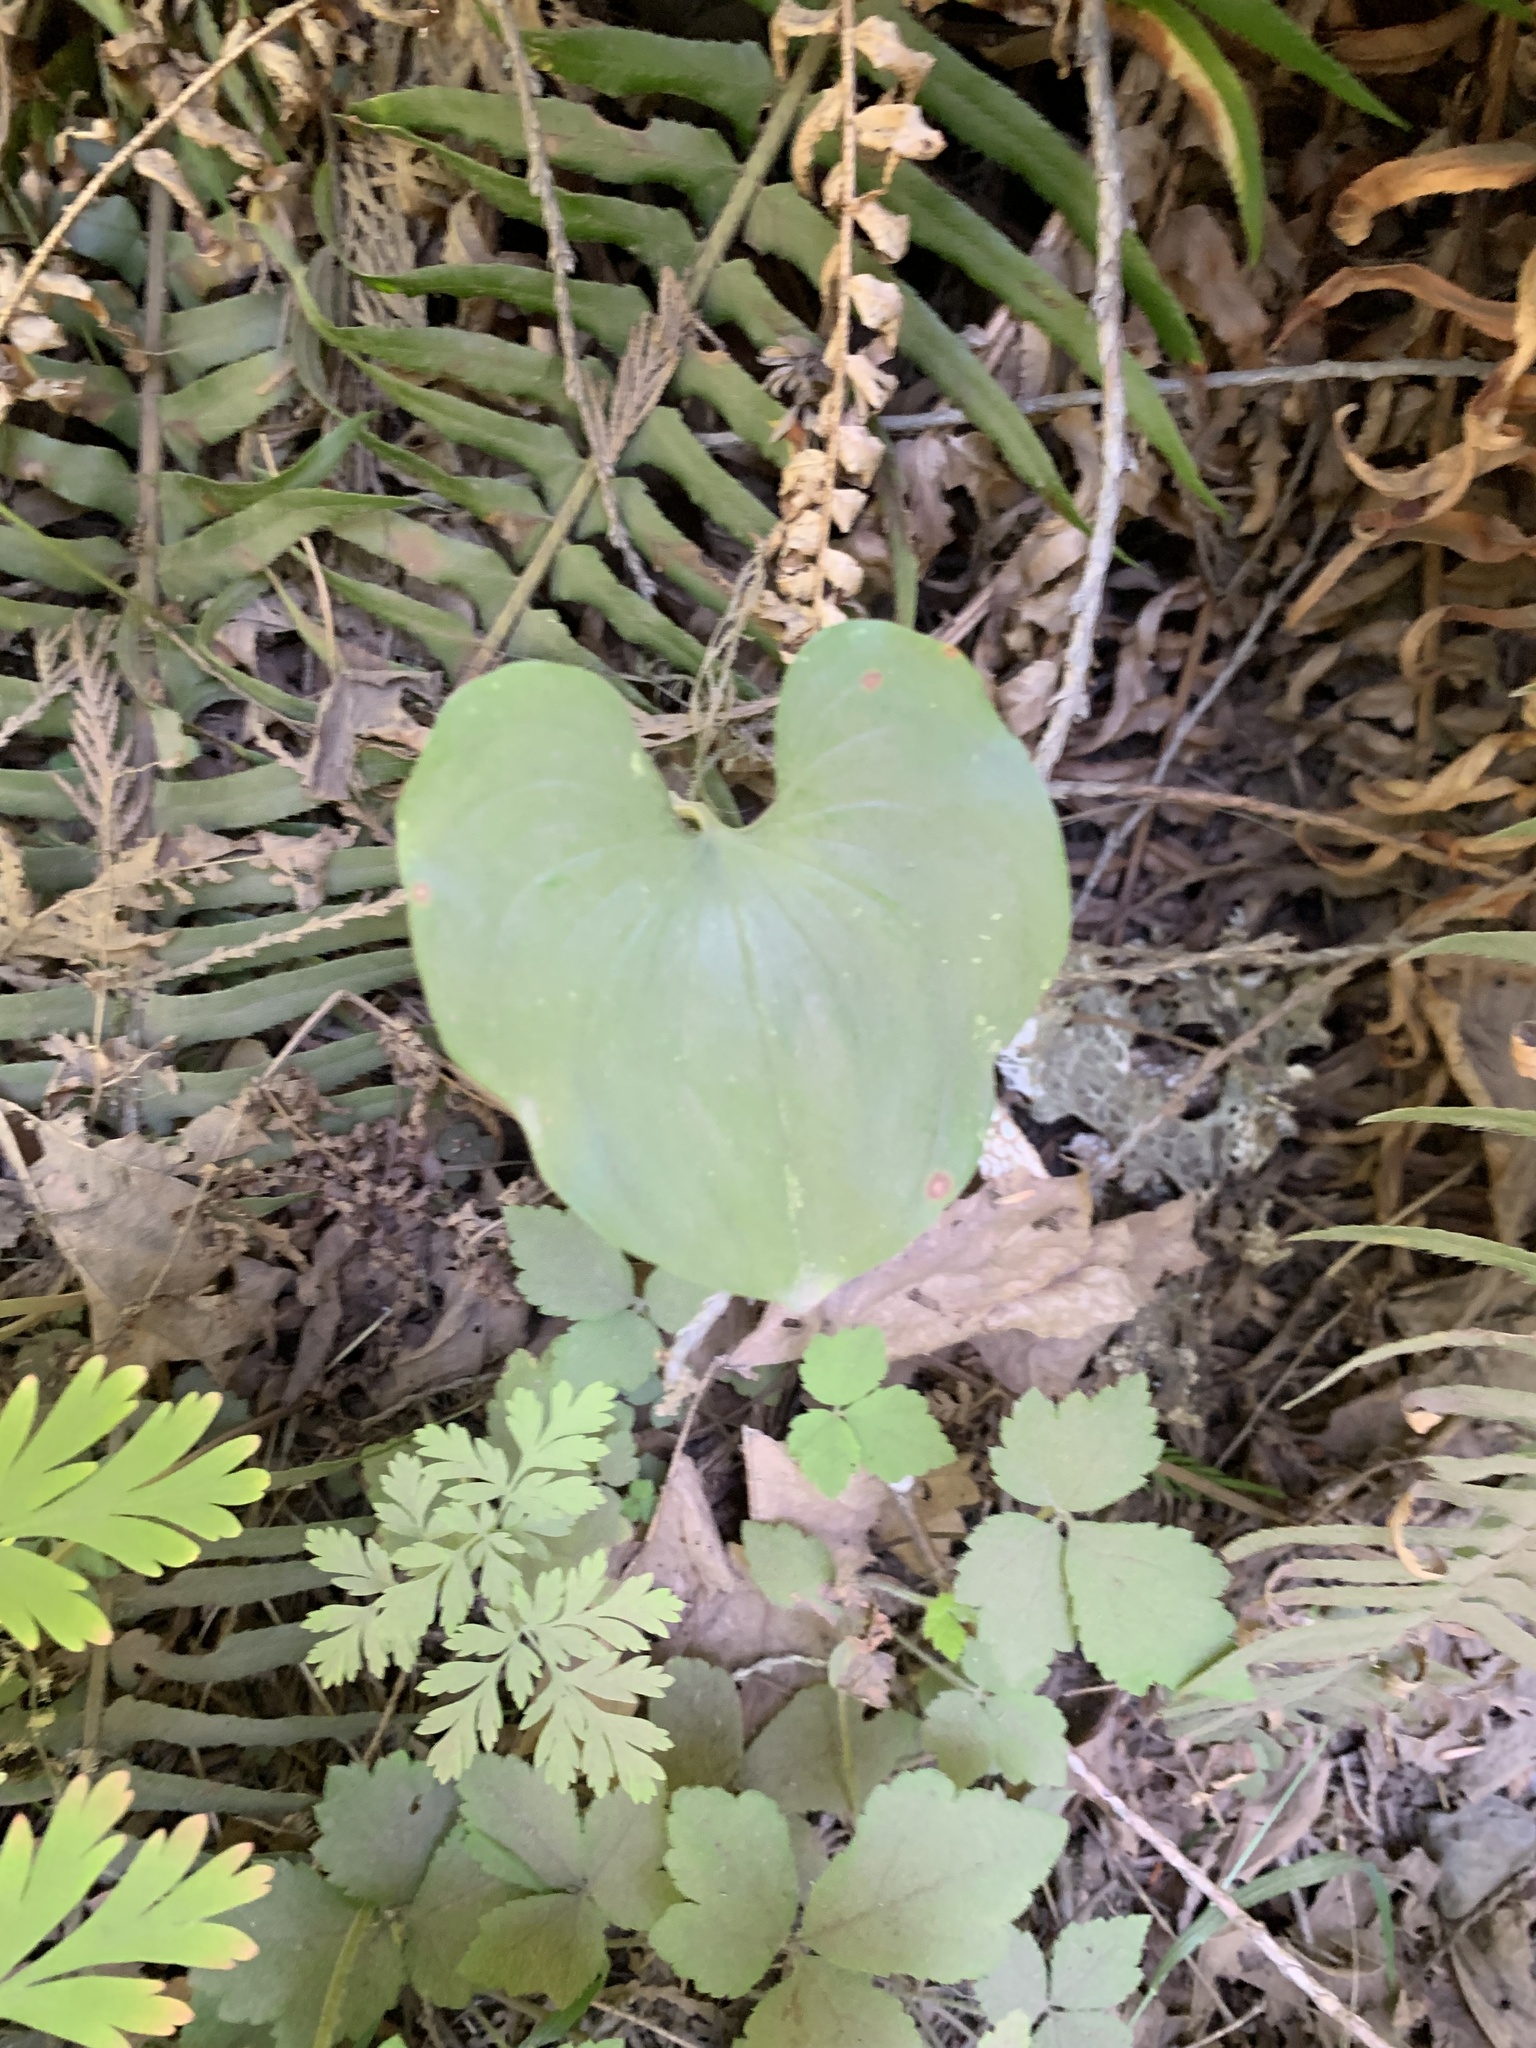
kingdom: Plantae
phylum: Tracheophyta
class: Liliopsida
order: Asparagales
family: Asparagaceae
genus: Maianthemum
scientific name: Maianthemum dilatatum
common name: False lily-of-the-valley
